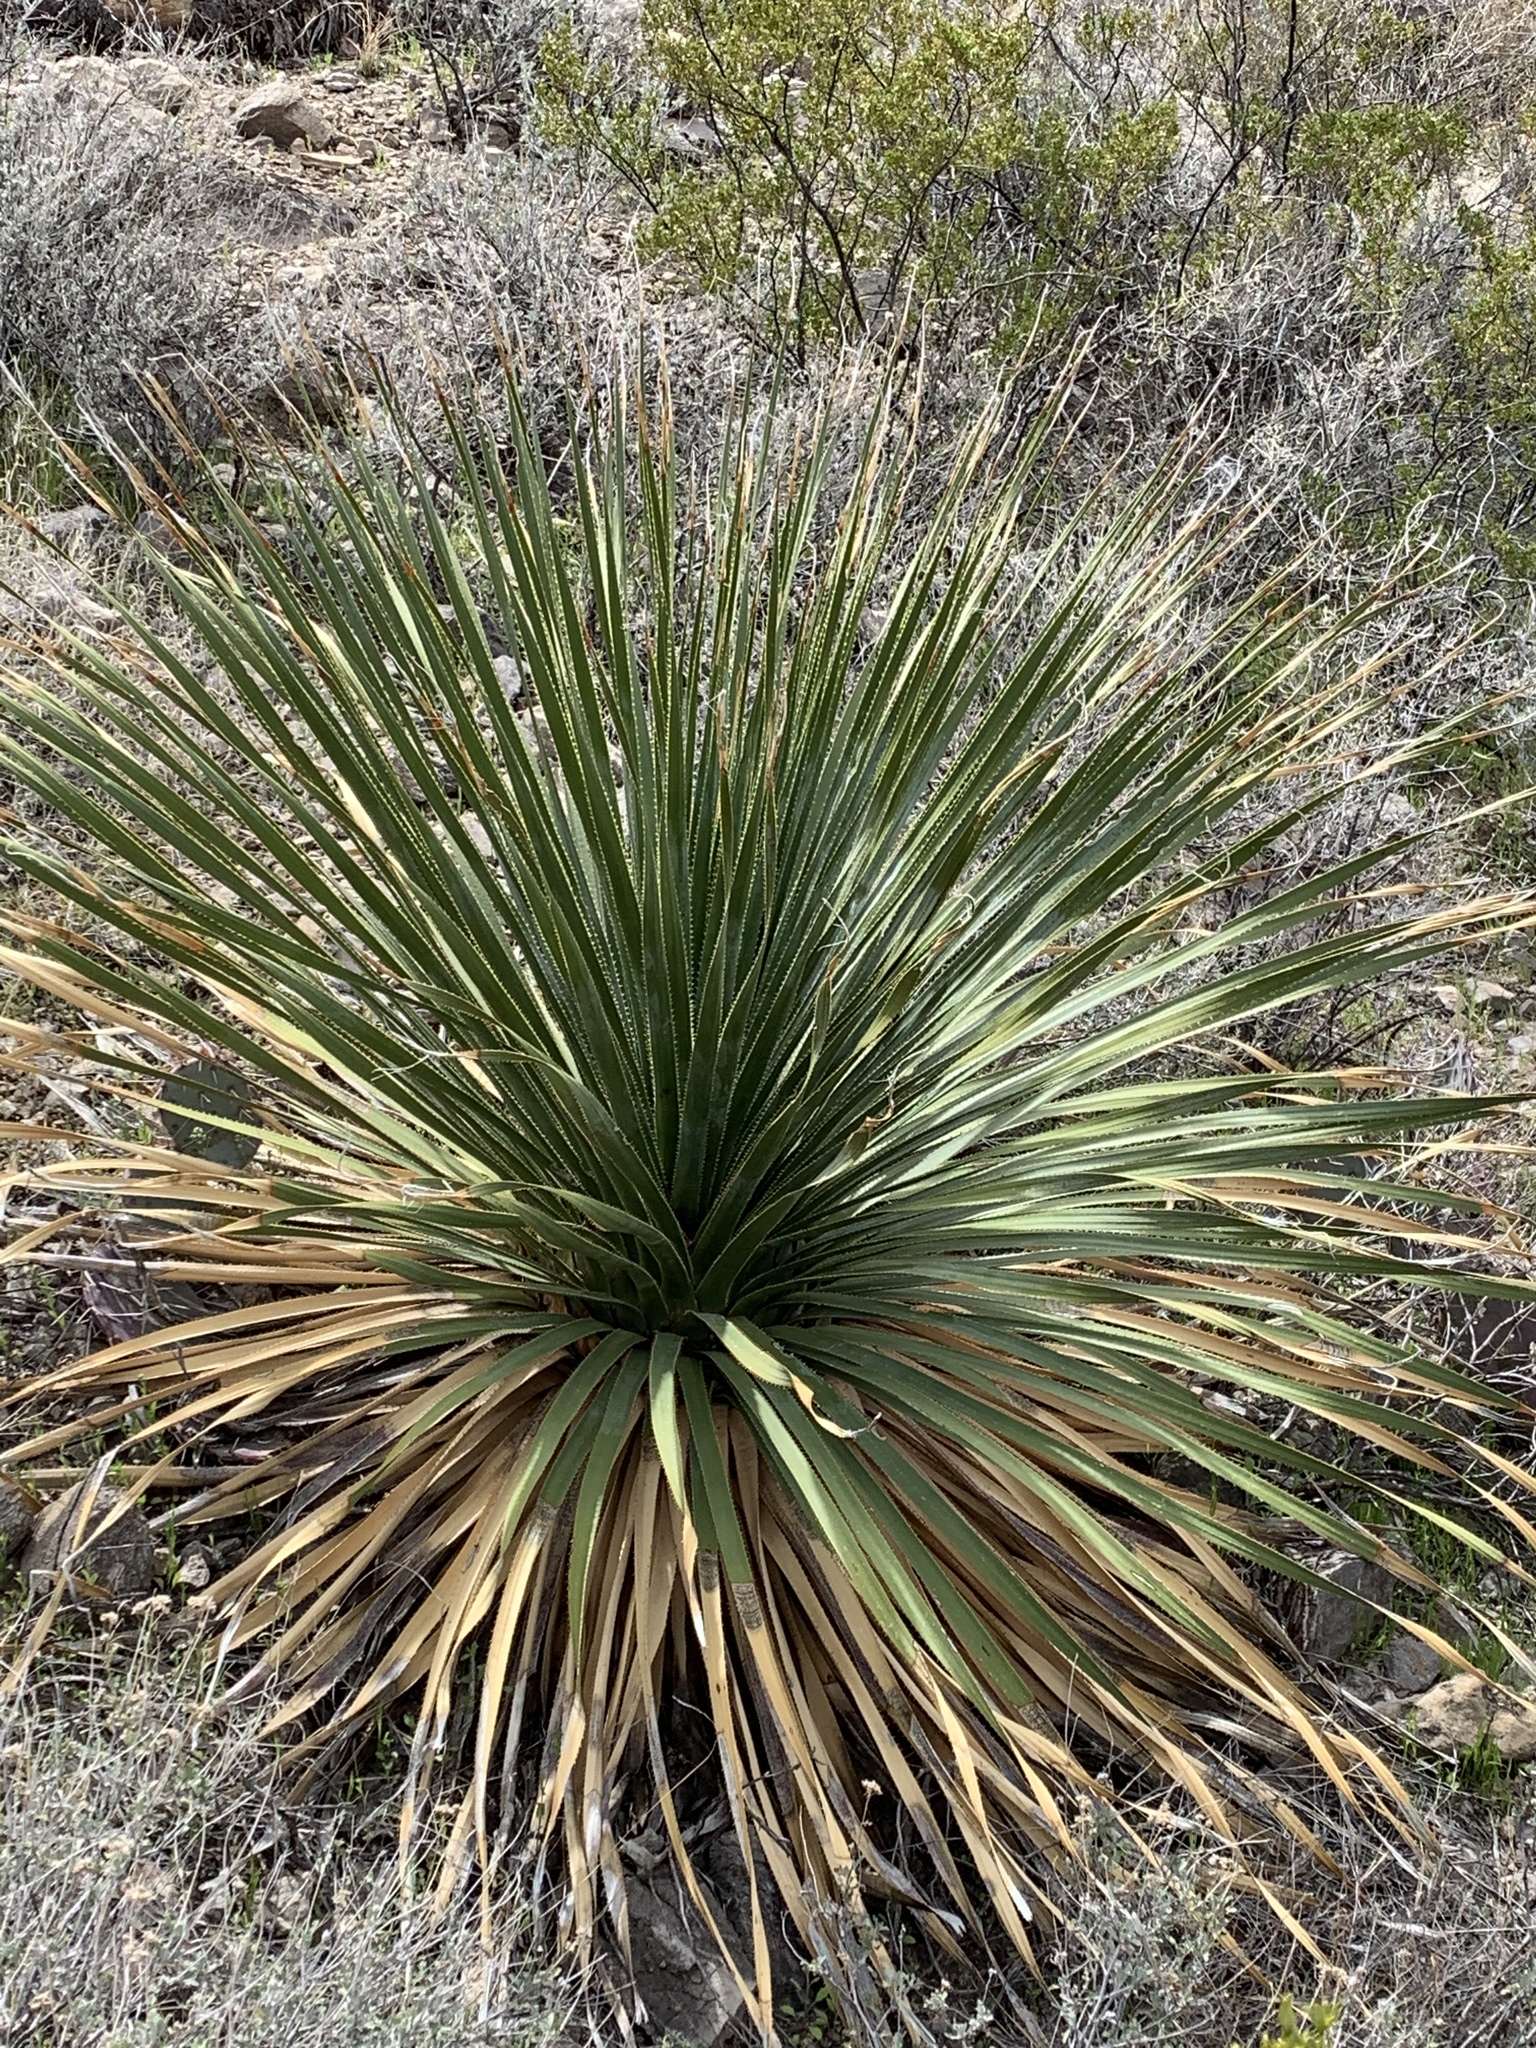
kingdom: Plantae
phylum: Tracheophyta
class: Liliopsida
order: Asparagales
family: Asparagaceae
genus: Dasylirion
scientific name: Dasylirion wheeleri
